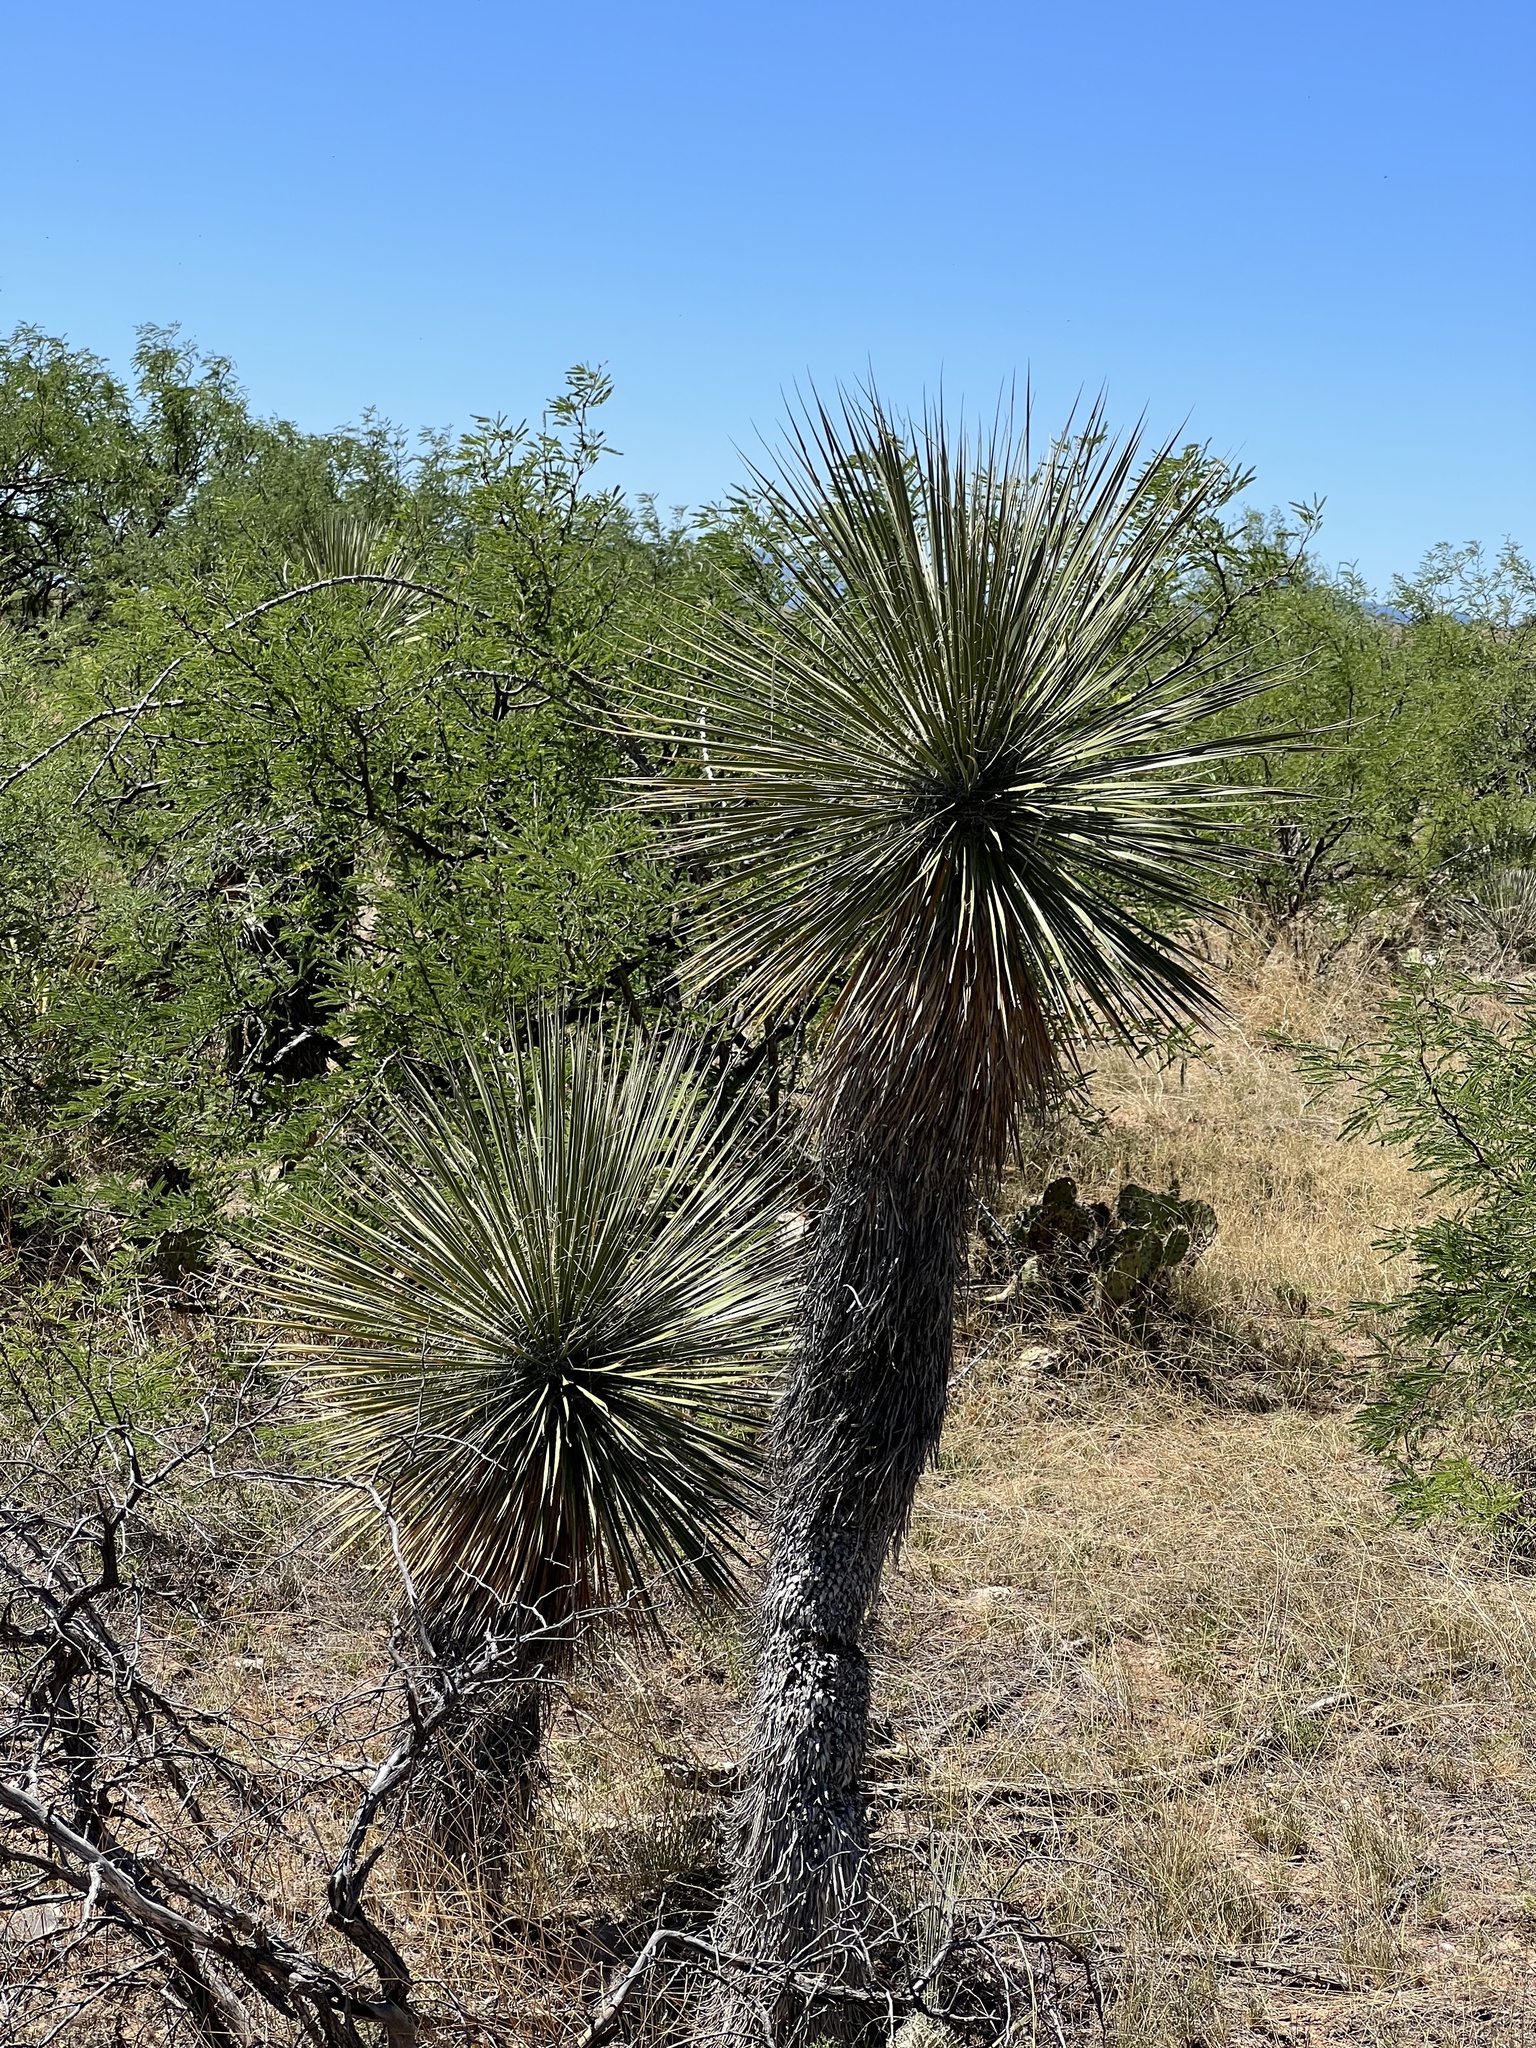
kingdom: Plantae
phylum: Tracheophyta
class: Liliopsida
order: Asparagales
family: Asparagaceae
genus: Yucca
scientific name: Yucca elata
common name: Palmella
